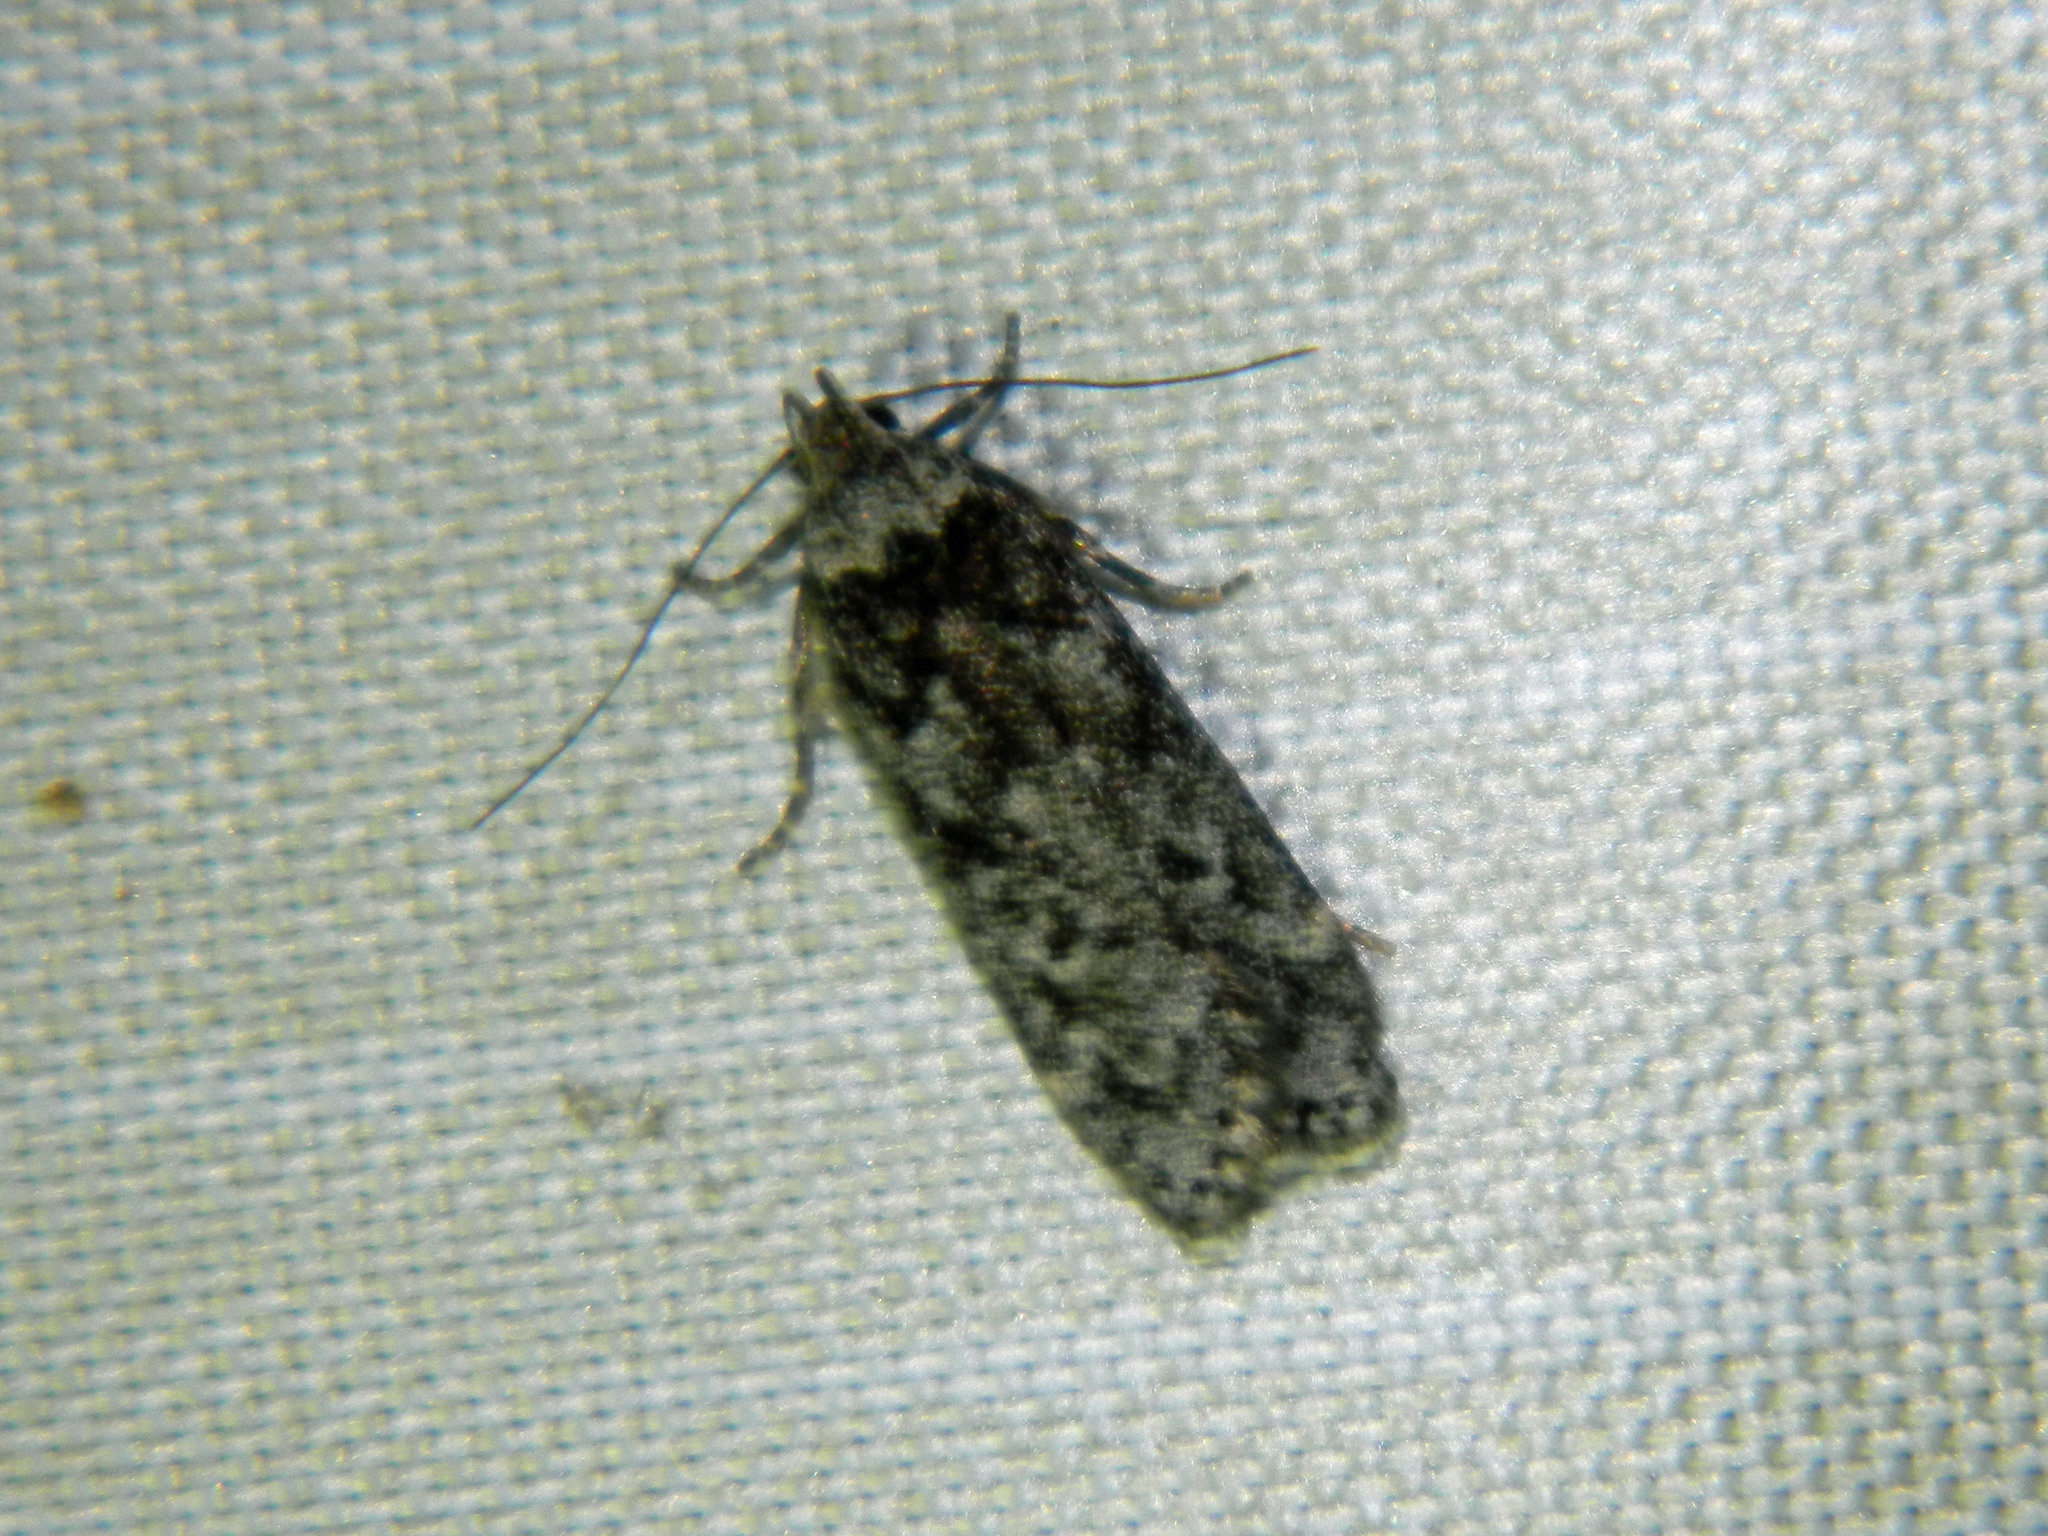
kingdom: Animalia
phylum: Arthropoda
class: Insecta
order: Lepidoptera
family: Gelechiidae
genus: Anacampsis
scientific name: Anacampsis niveopulvella
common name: Pale-headed aspen leafroller moth
